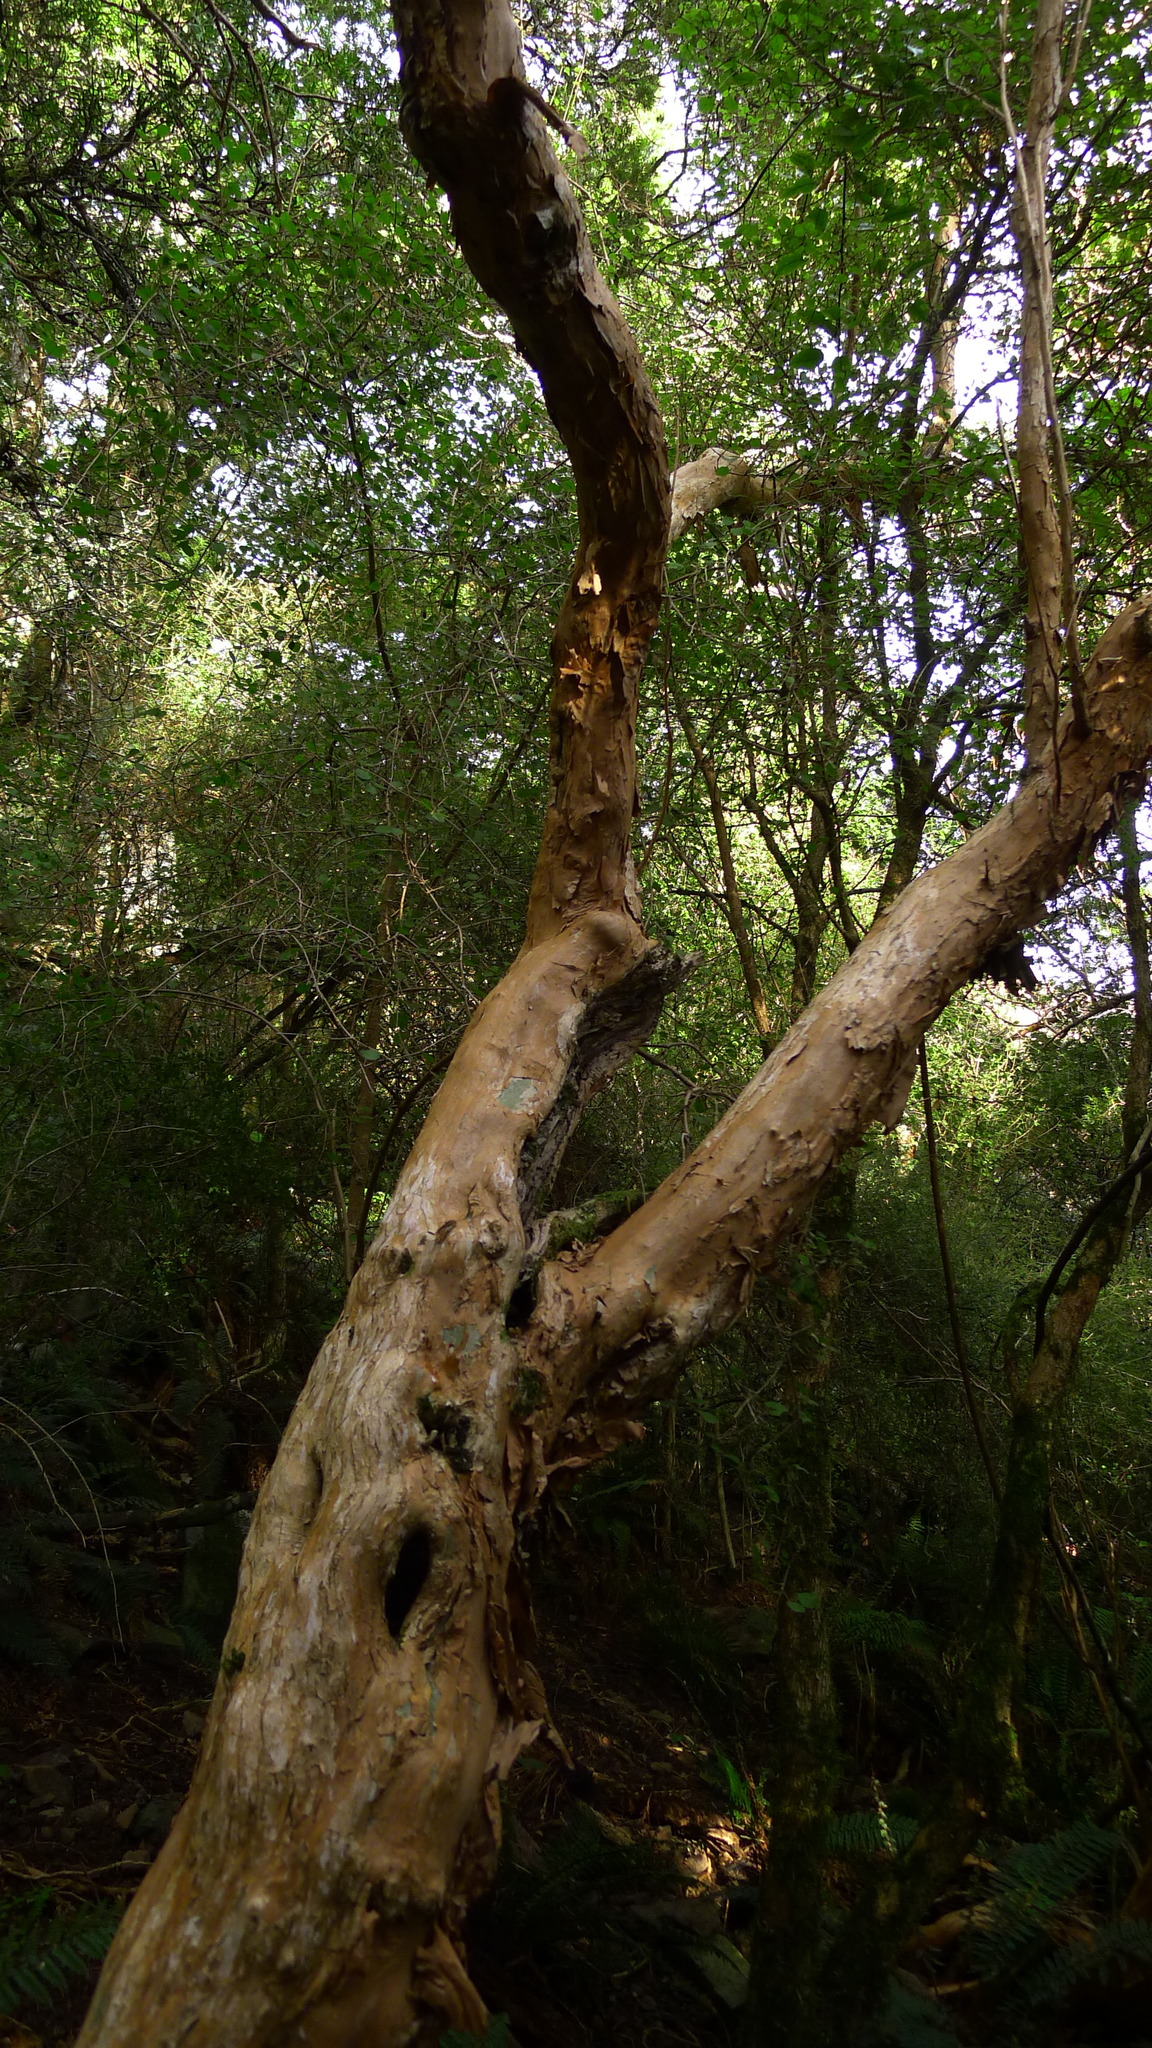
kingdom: Plantae
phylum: Tracheophyta
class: Magnoliopsida
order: Myrtales
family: Onagraceae
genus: Fuchsia
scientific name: Fuchsia excorticata
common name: Tree fuchsia
